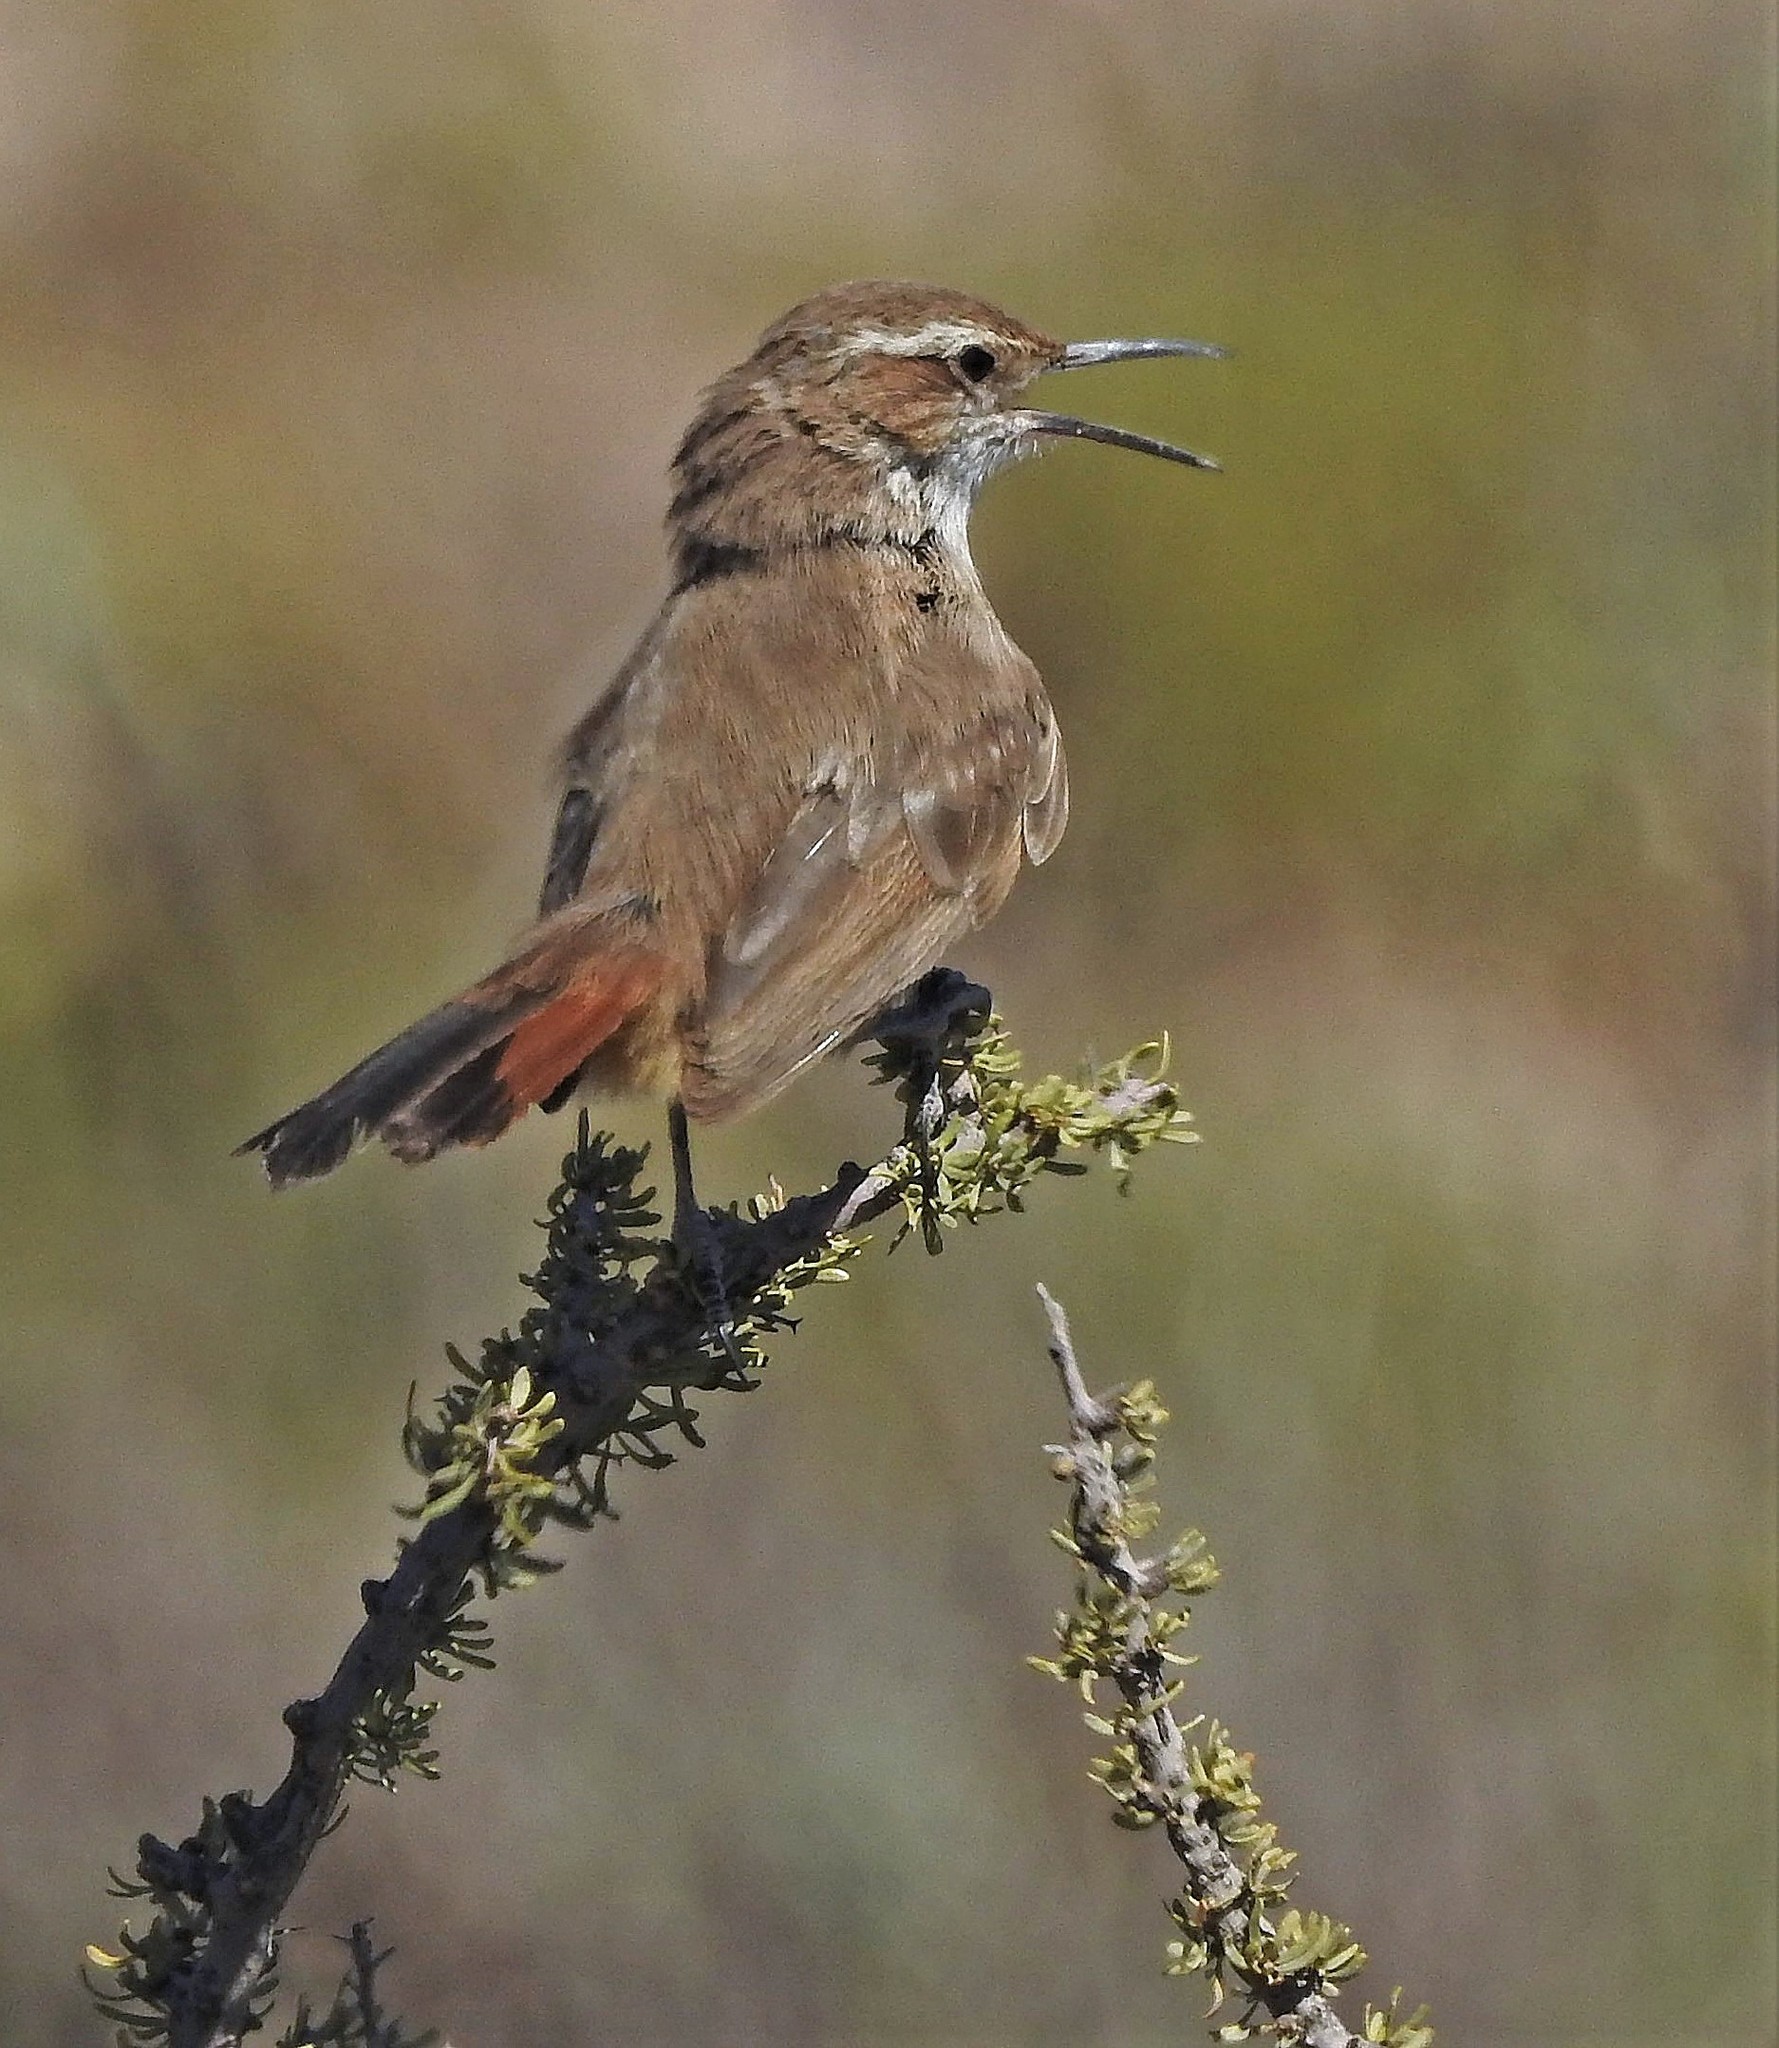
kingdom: Animalia
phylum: Chordata
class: Aves
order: Passeriformes
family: Furnariidae
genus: Eremobius
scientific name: Eremobius phoenicurus
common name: Band-tailed eremobius
